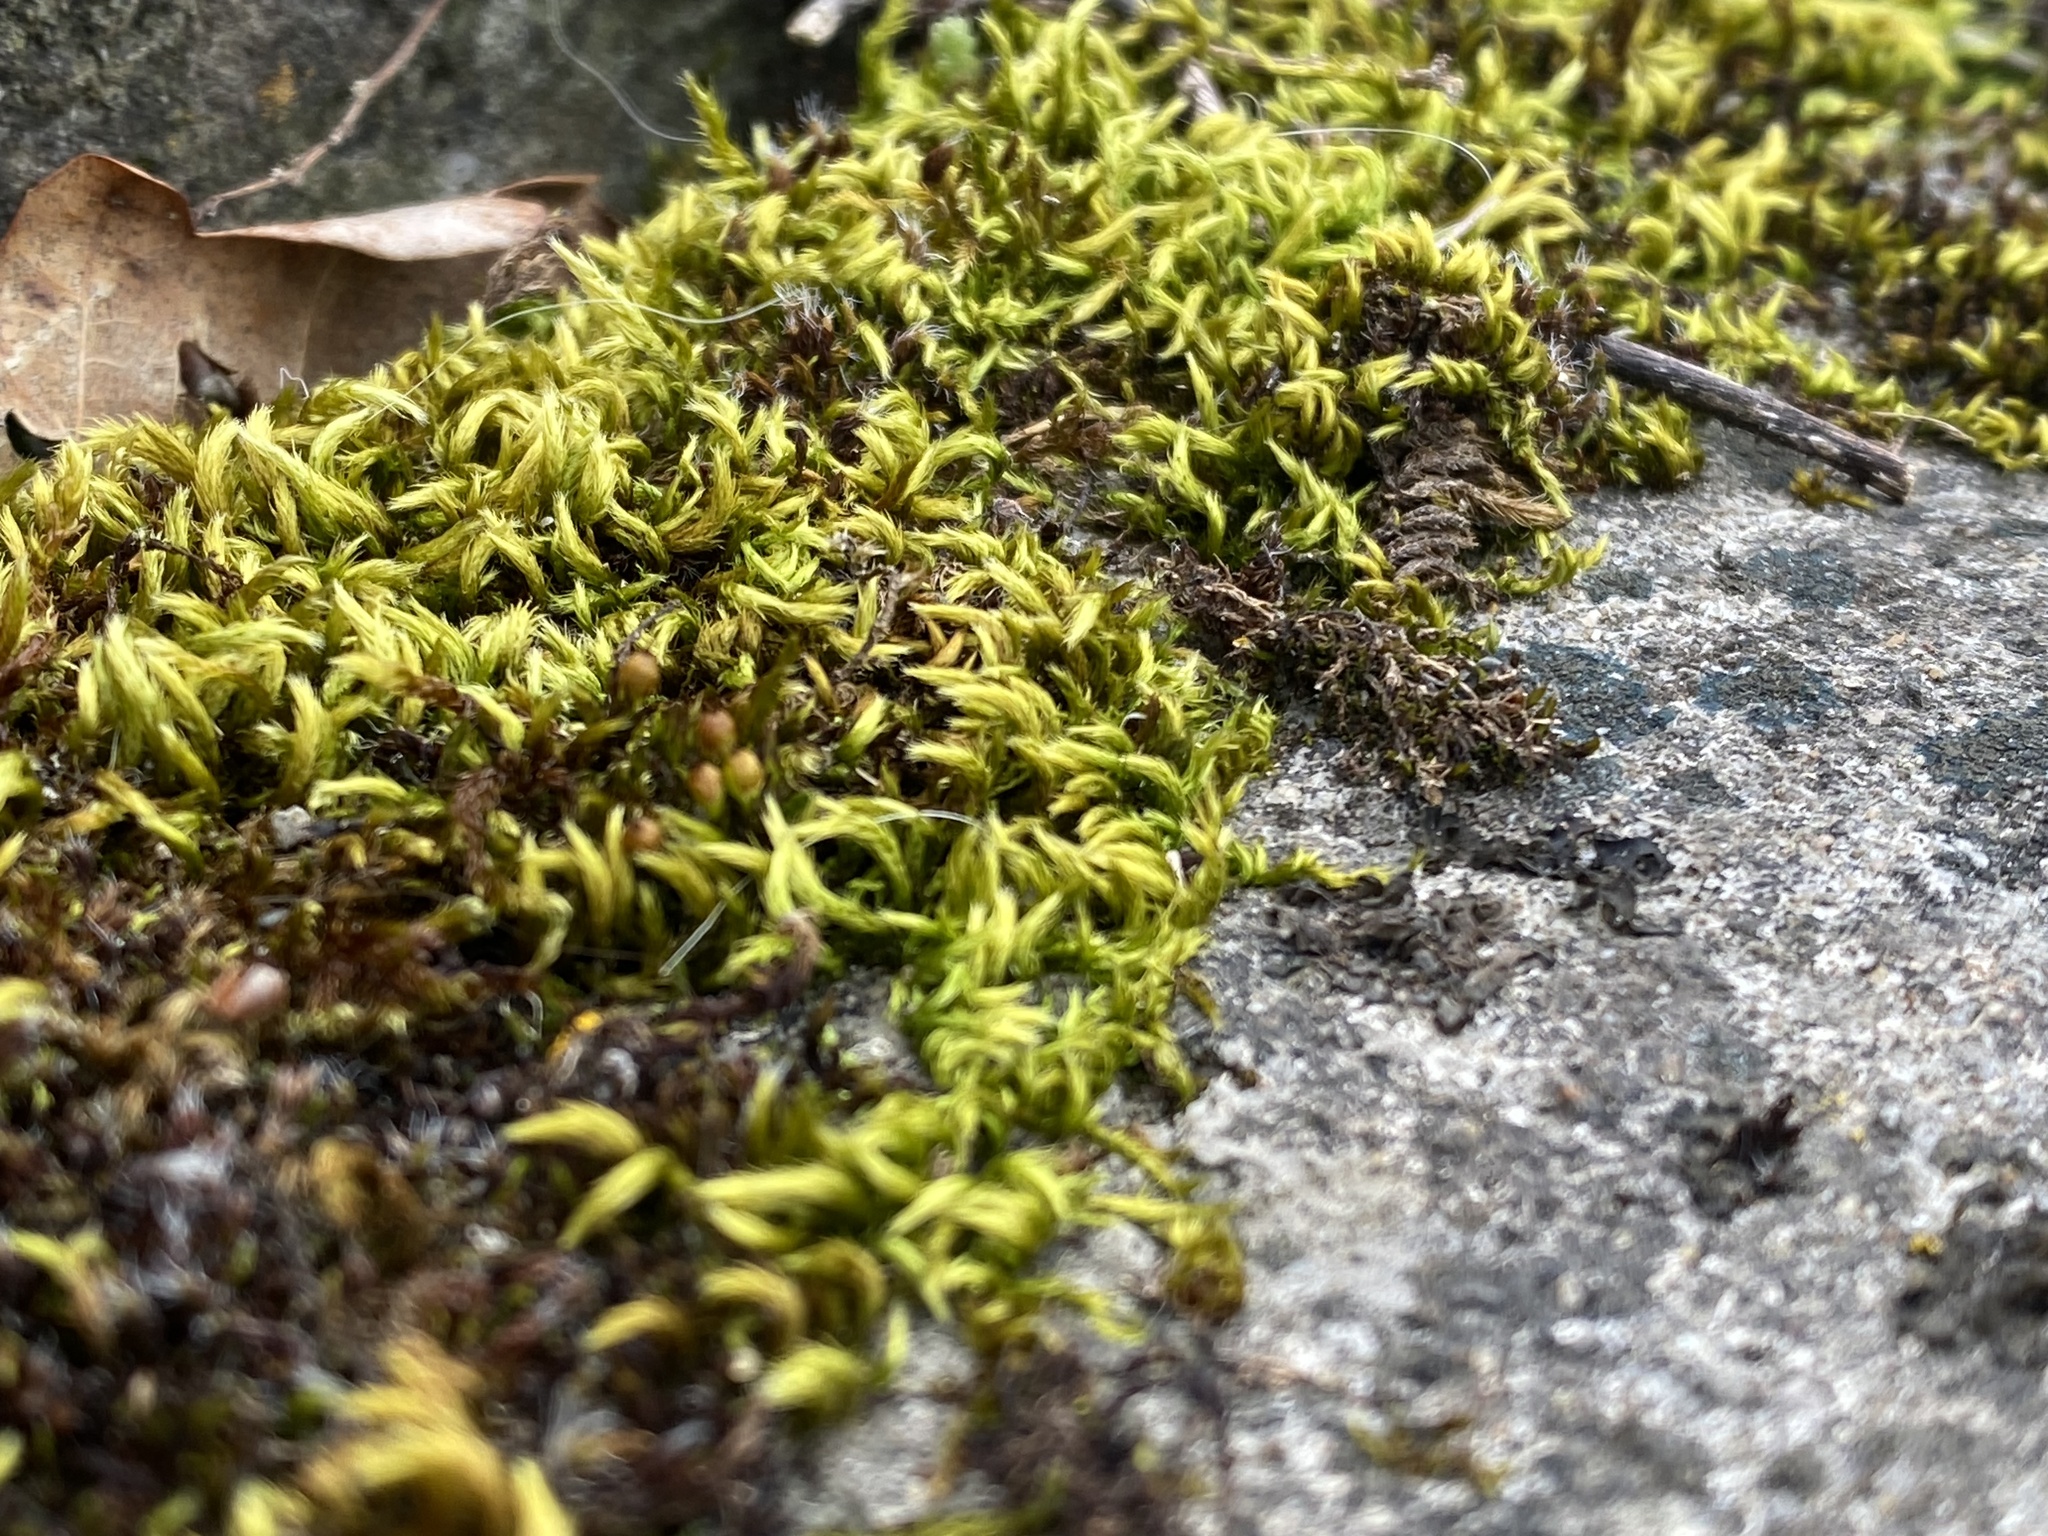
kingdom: Plantae
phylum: Bryophyta
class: Bryopsida
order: Hypnales
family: Brachytheciaceae
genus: Homalothecium
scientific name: Homalothecium sericeum
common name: Silky wall feather-moss
